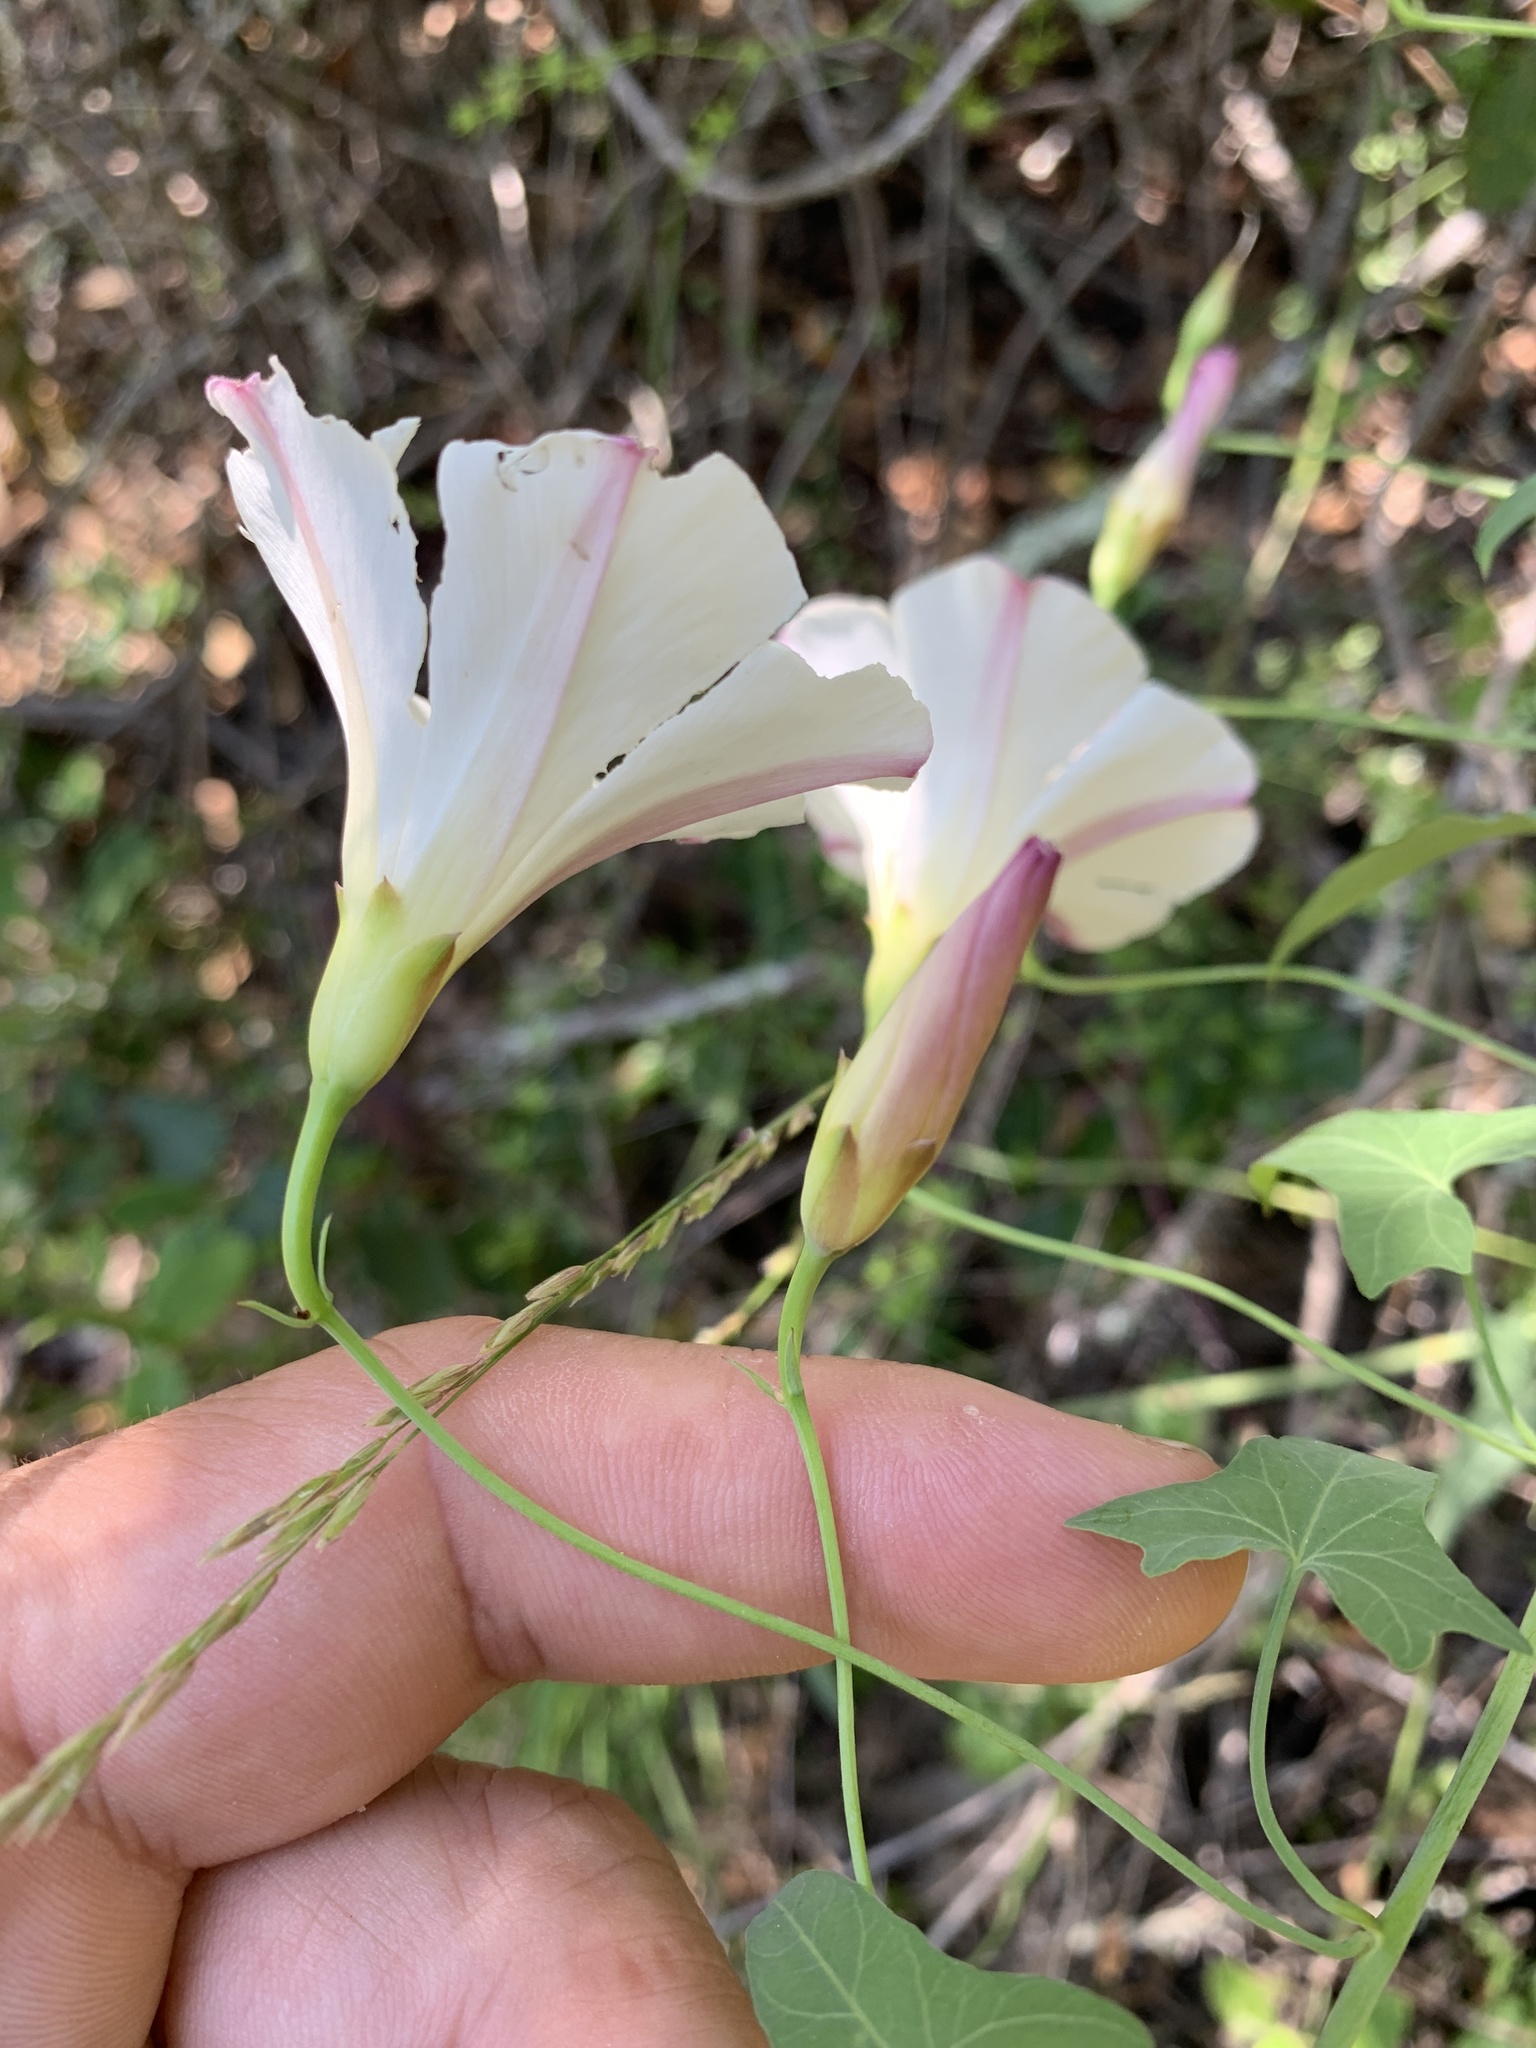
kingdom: Plantae
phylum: Tracheophyta
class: Magnoliopsida
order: Solanales
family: Convolvulaceae
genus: Calystegia
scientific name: Calystegia purpurata
